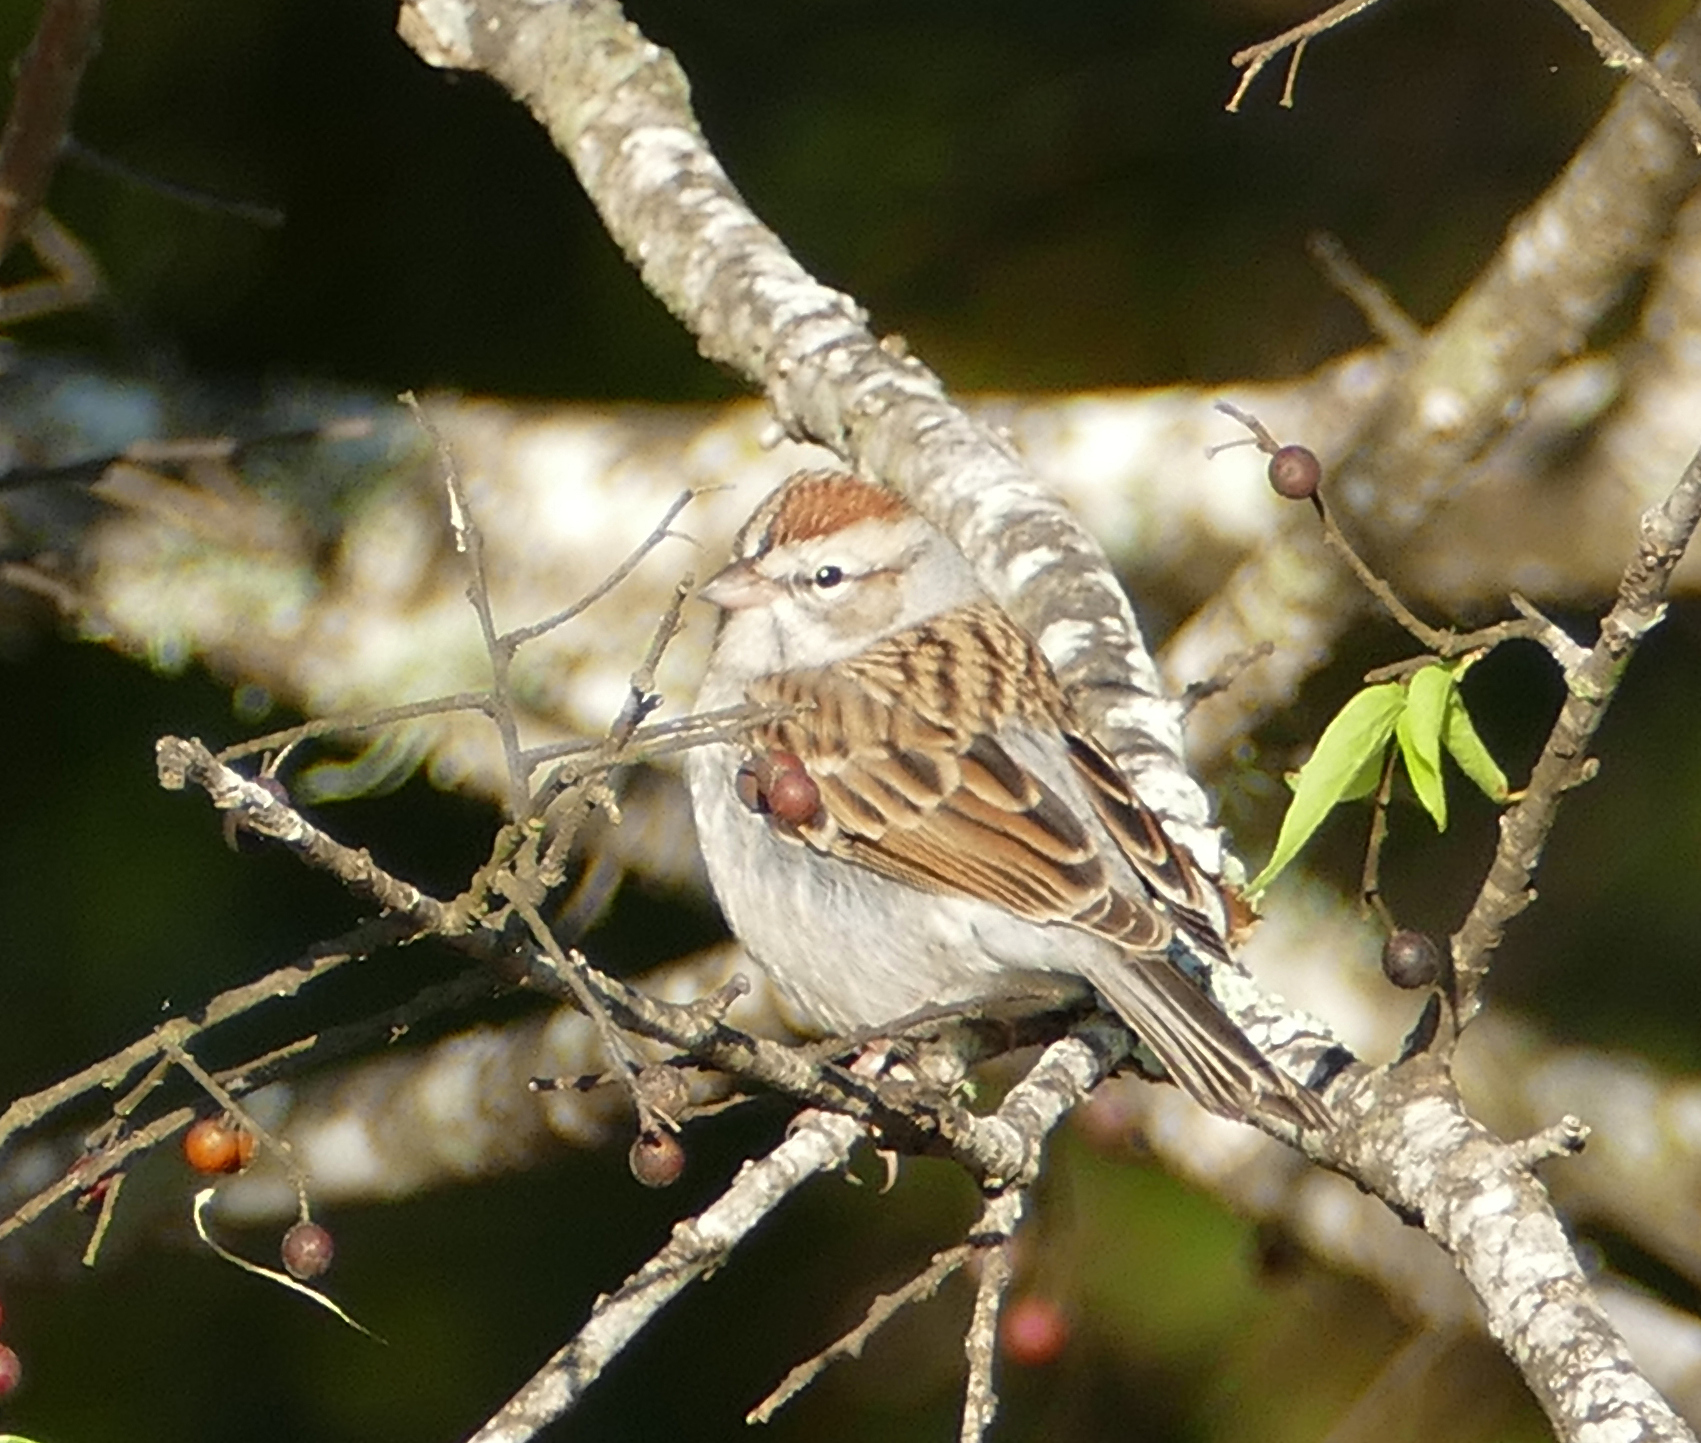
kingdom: Animalia
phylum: Chordata
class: Aves
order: Passeriformes
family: Passerellidae
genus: Spizella
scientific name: Spizella passerina
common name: Chipping sparrow
